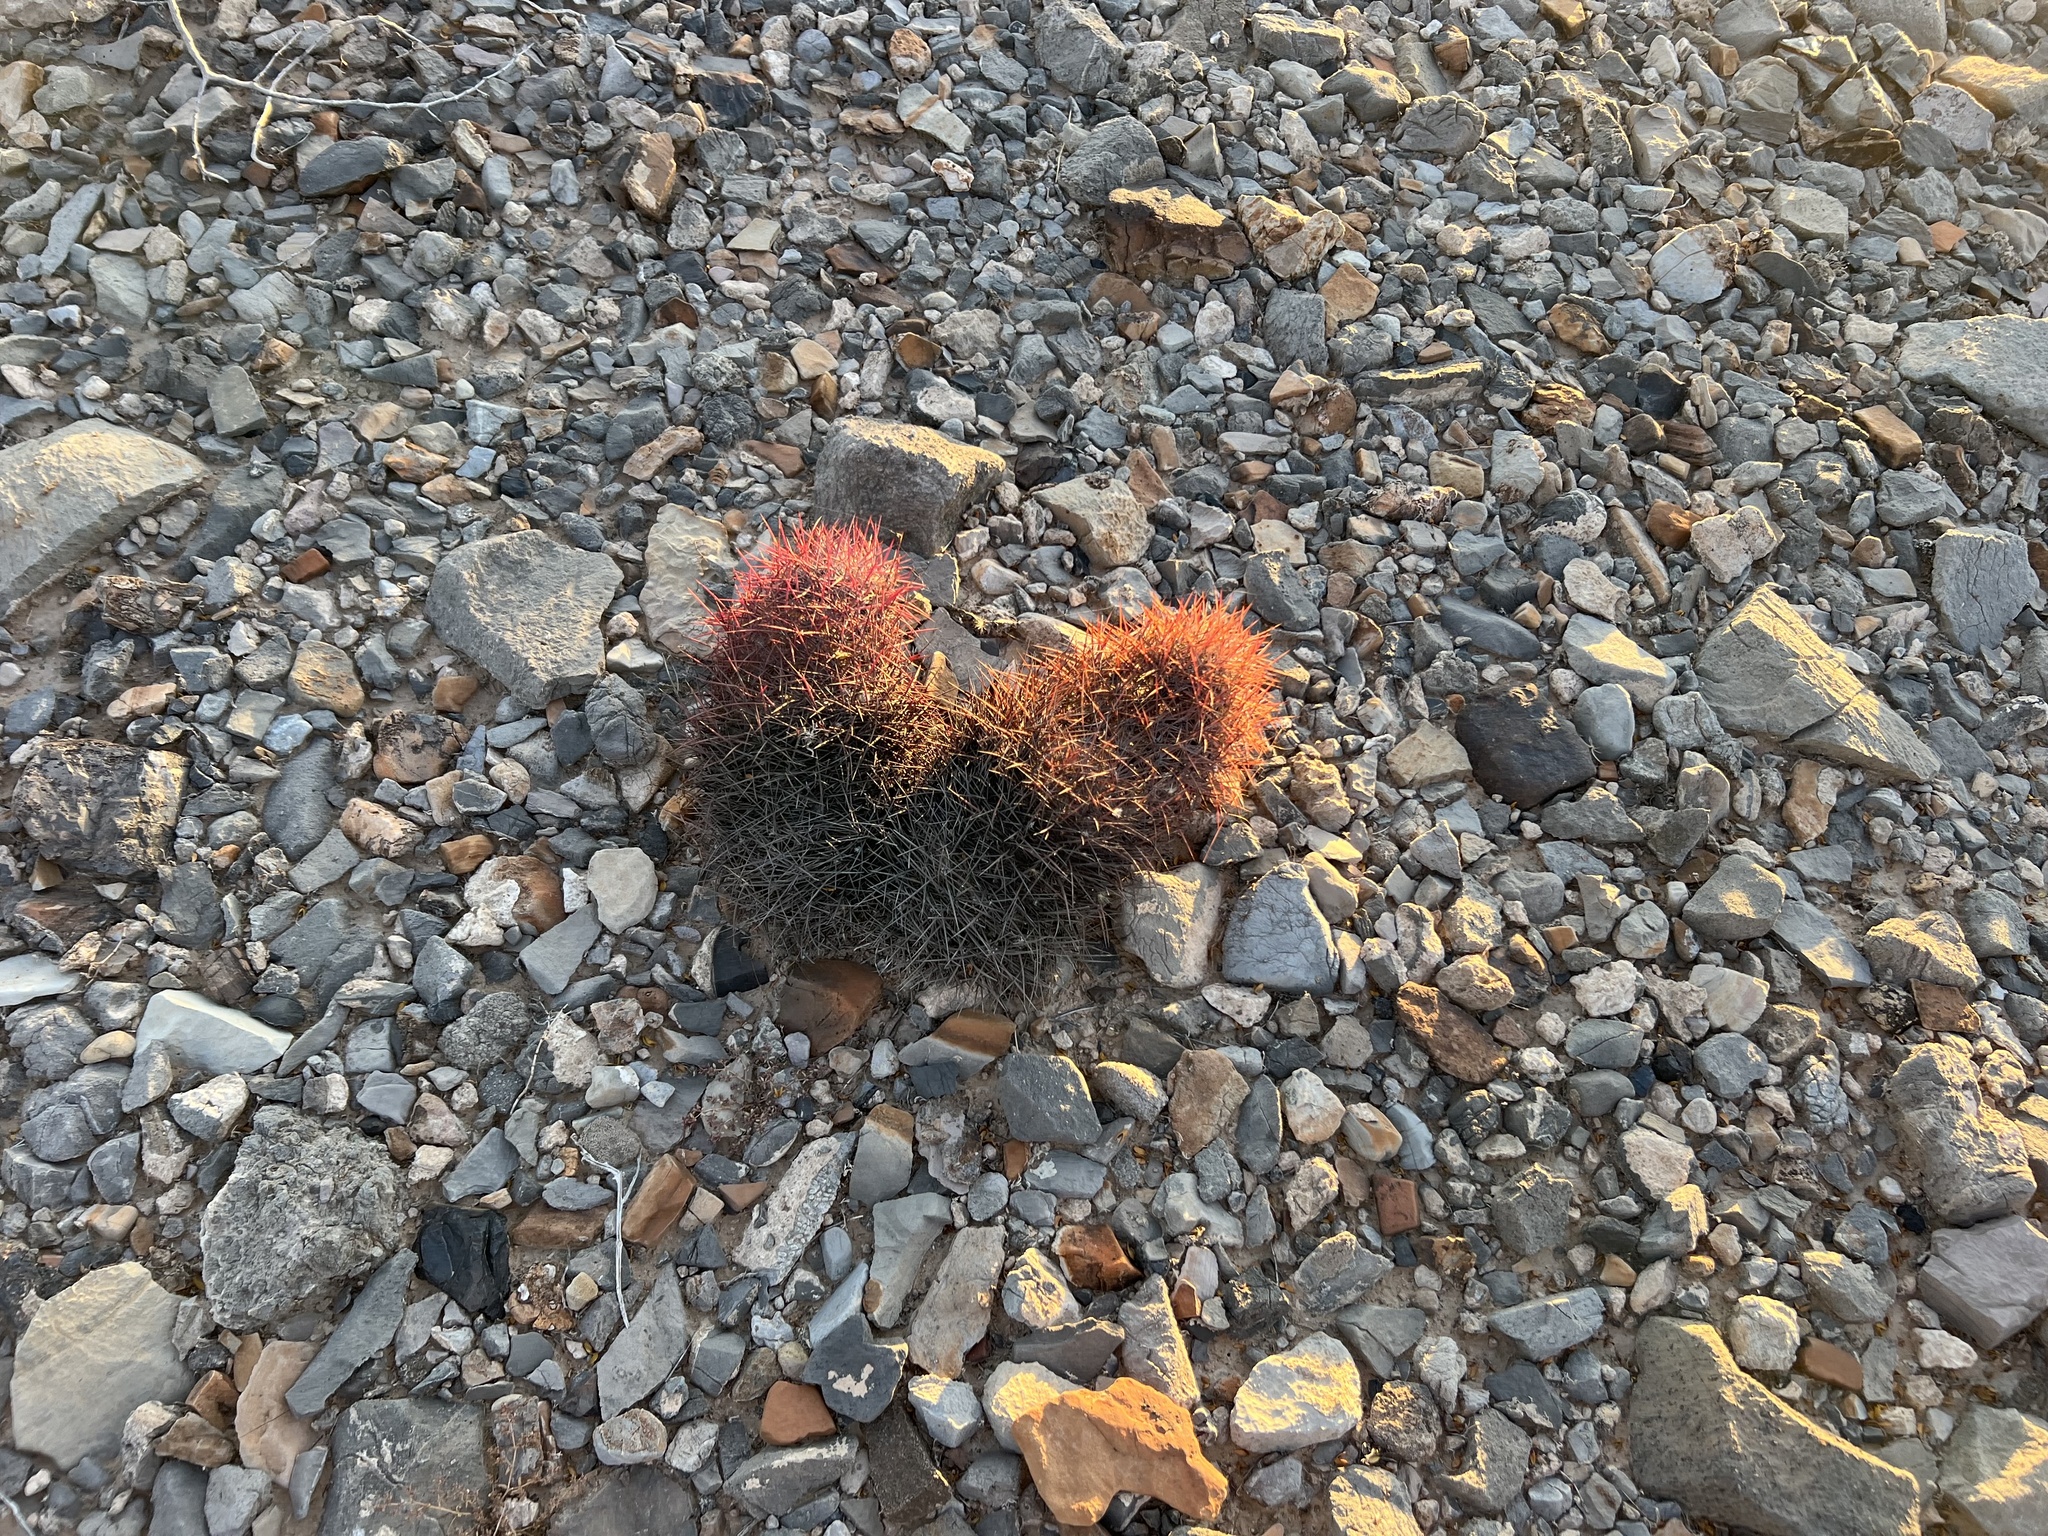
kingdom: Plantae
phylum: Tracheophyta
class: Magnoliopsida
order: Caryophyllales
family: Cactaceae
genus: Sclerocactus
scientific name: Sclerocactus johnsonii
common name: Eight-spine fishhook cactus
